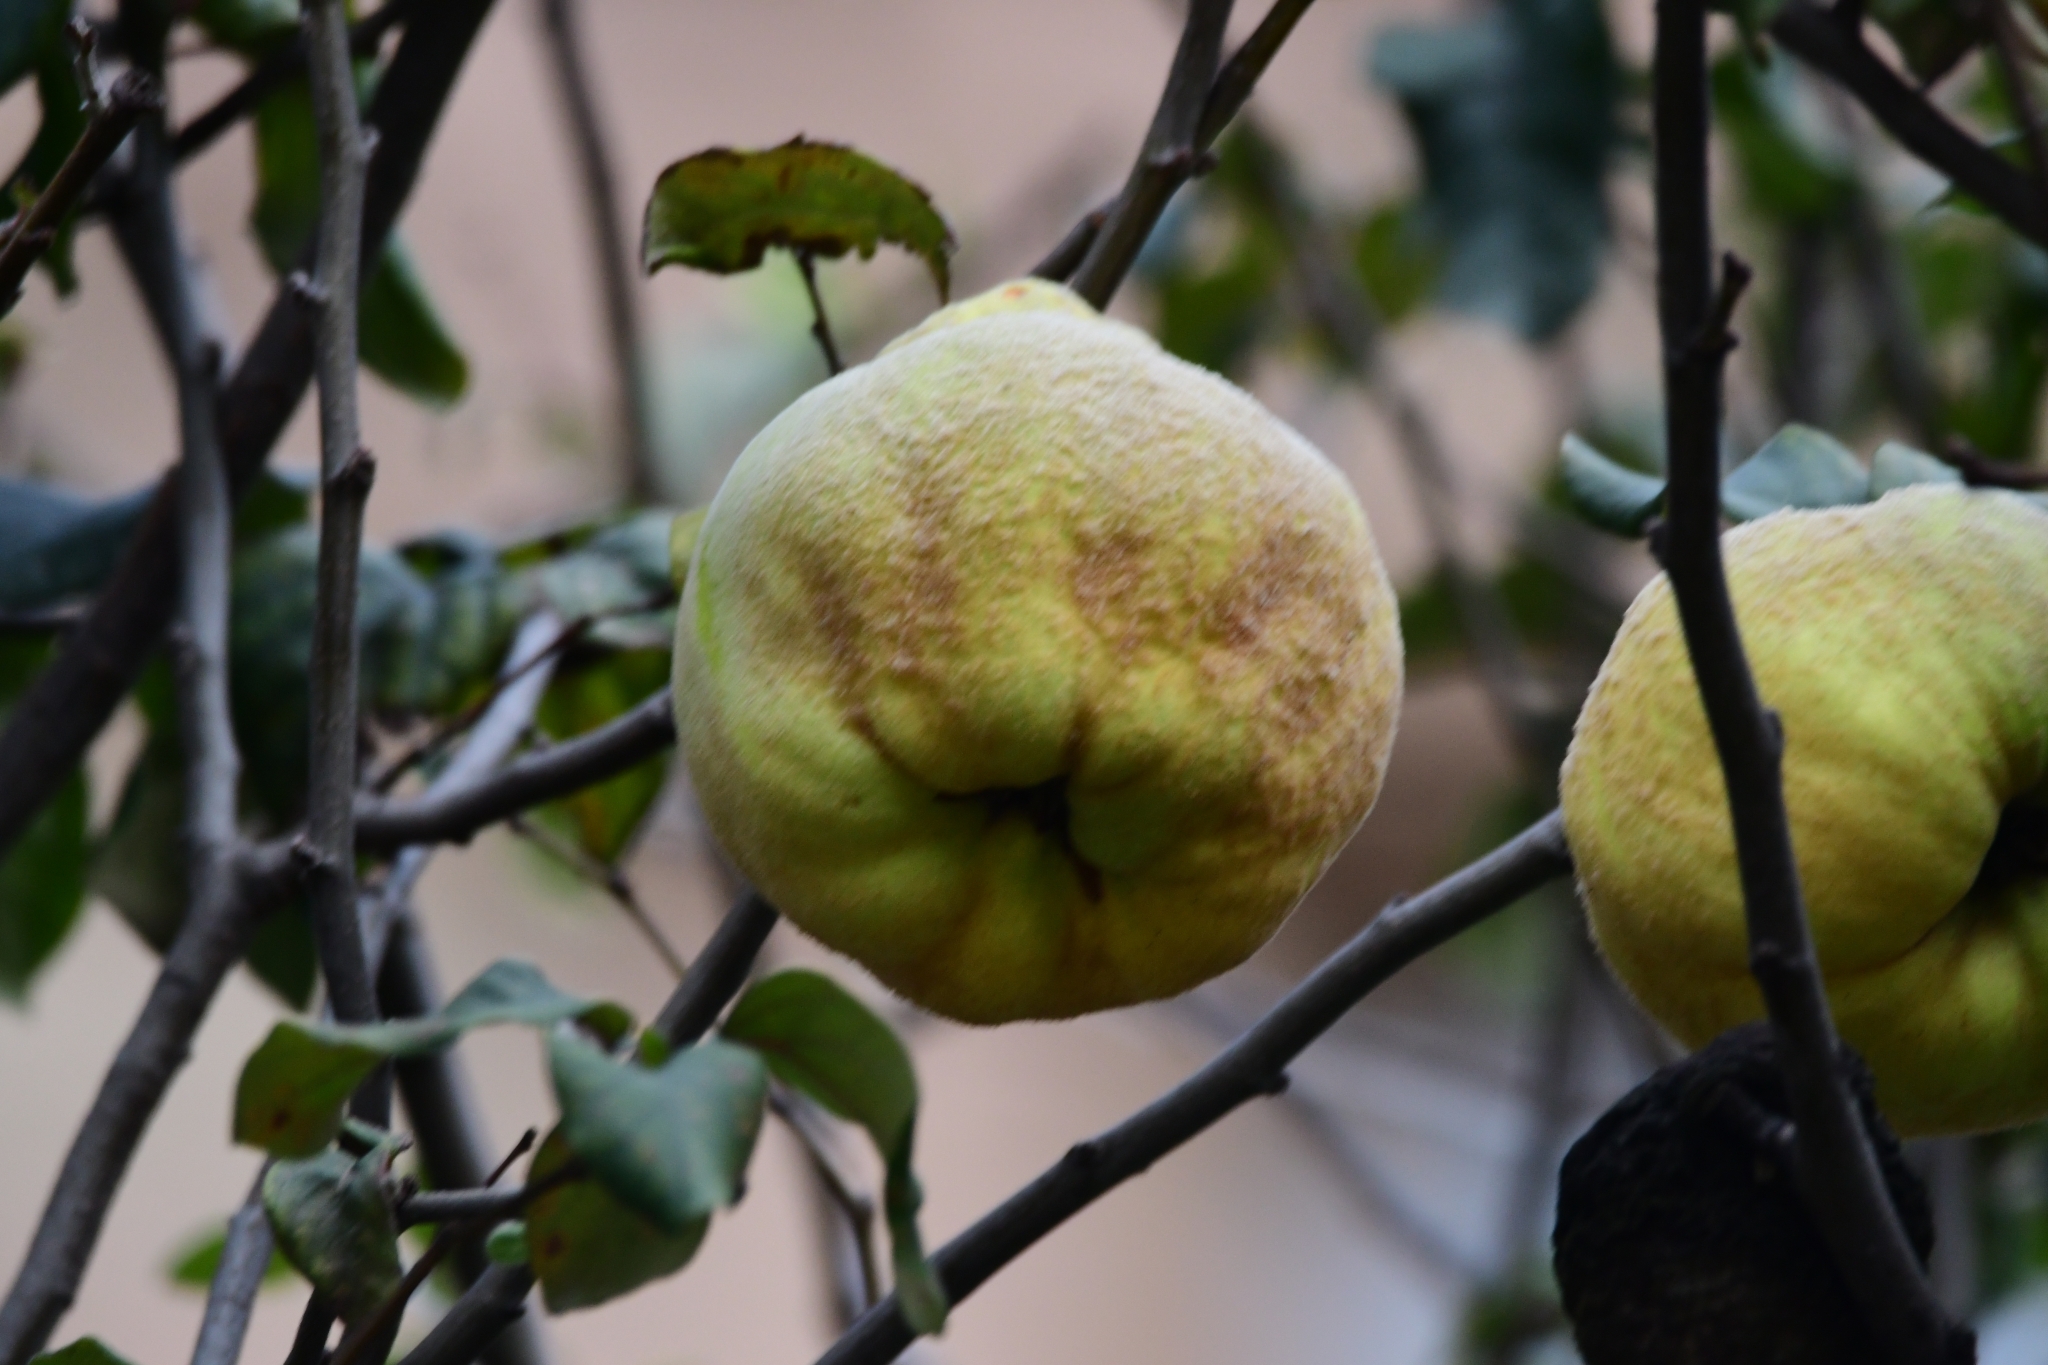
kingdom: Plantae
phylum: Tracheophyta
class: Magnoliopsida
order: Rosales
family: Rosaceae
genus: Cydonia
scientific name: Cydonia oblonga
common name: Quince
